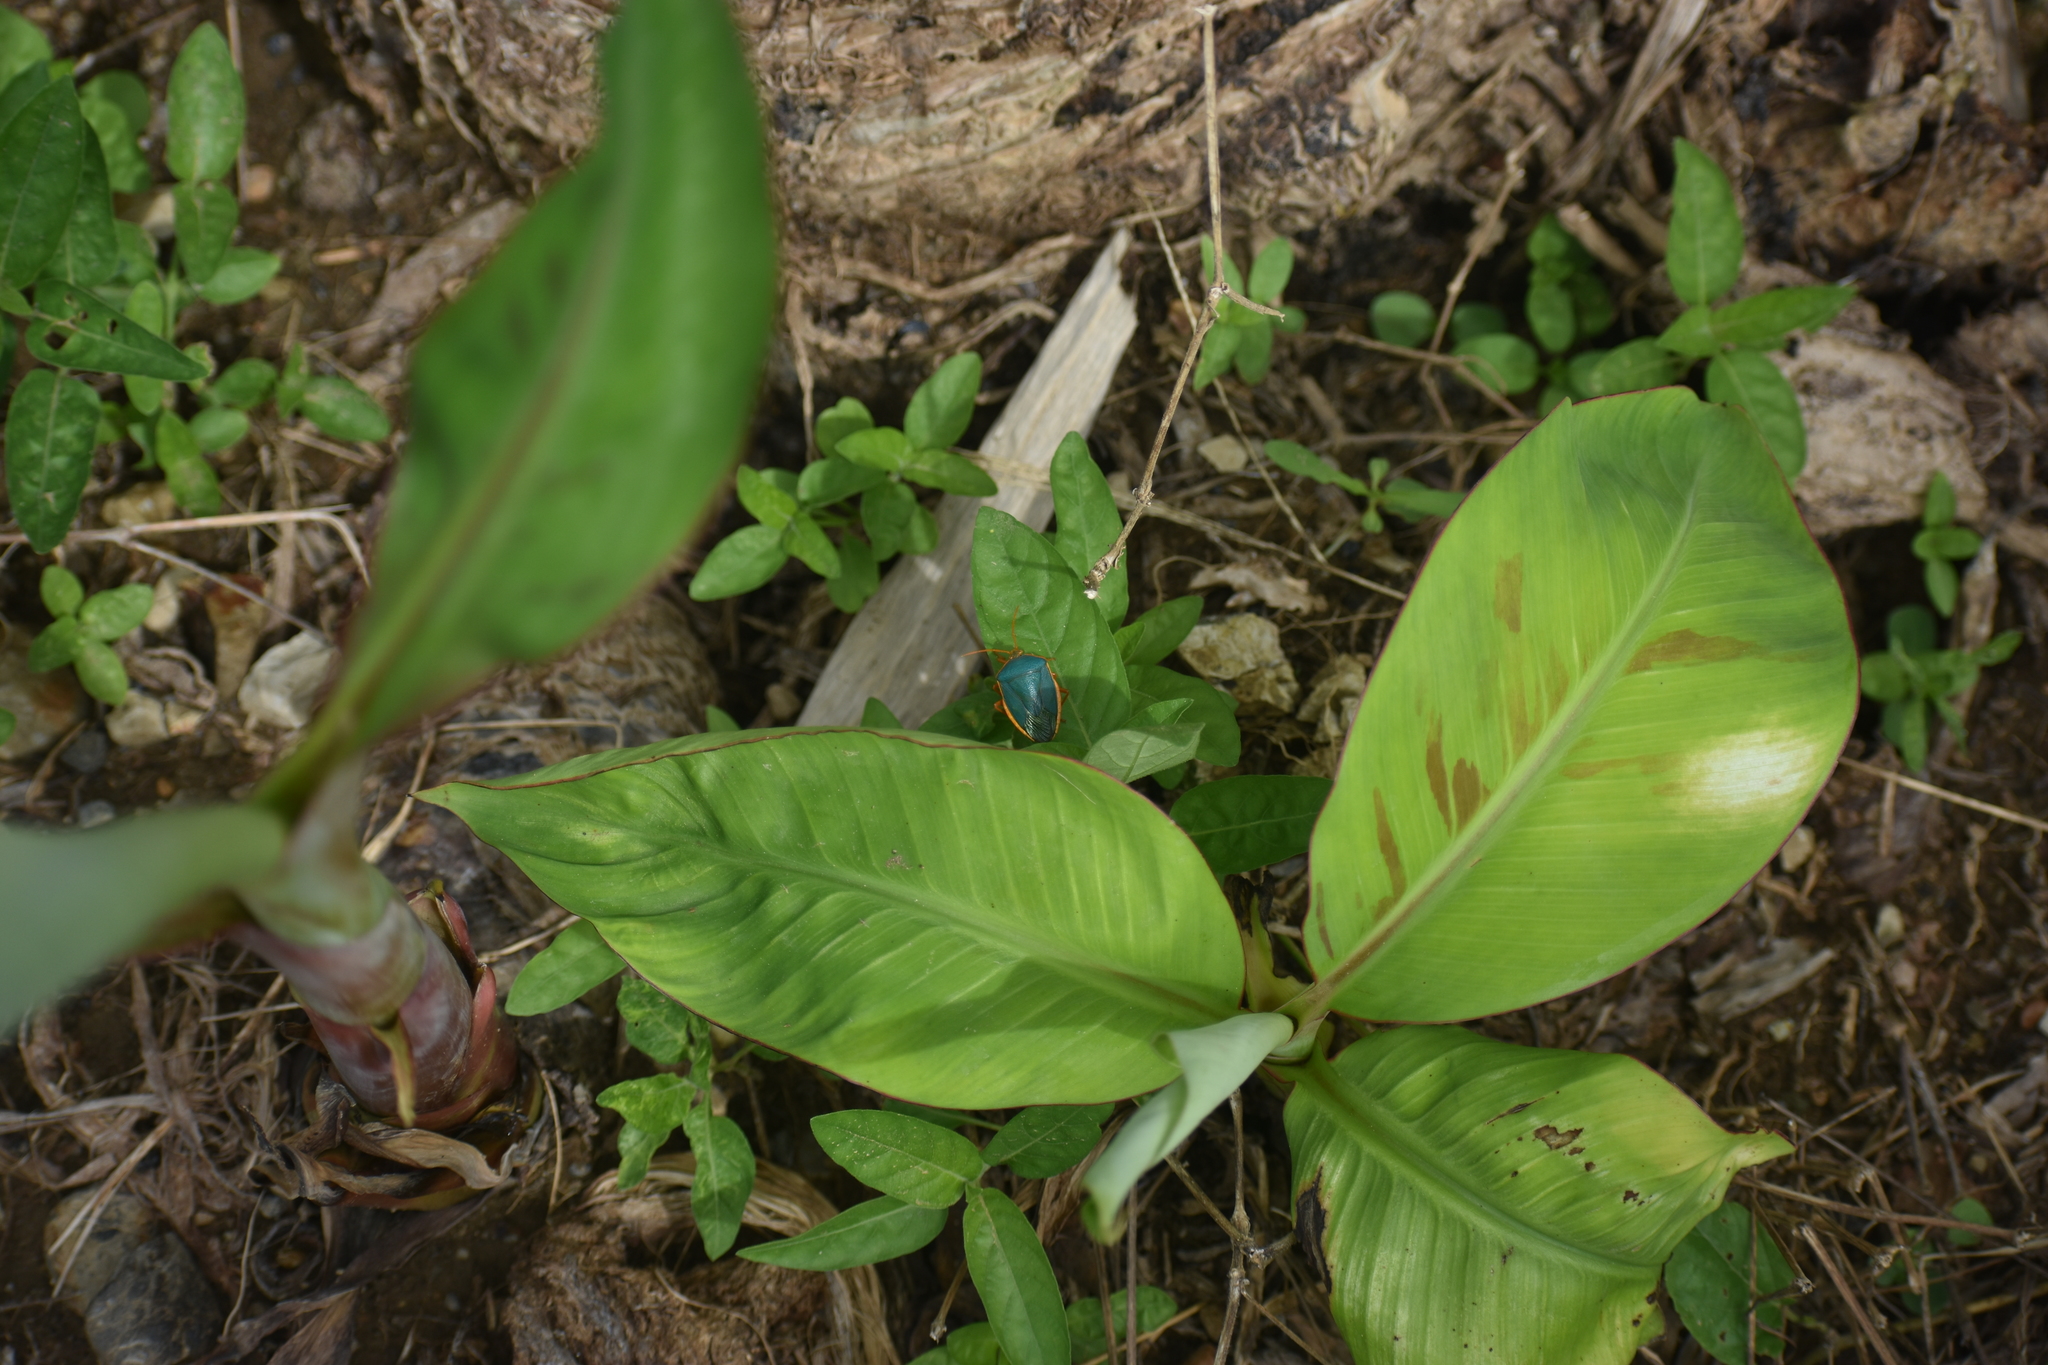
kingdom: Animalia
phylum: Arthropoda
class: Insecta
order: Hemiptera
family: Pentatomidae
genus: Edessa
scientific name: Edessa rufomarginata
